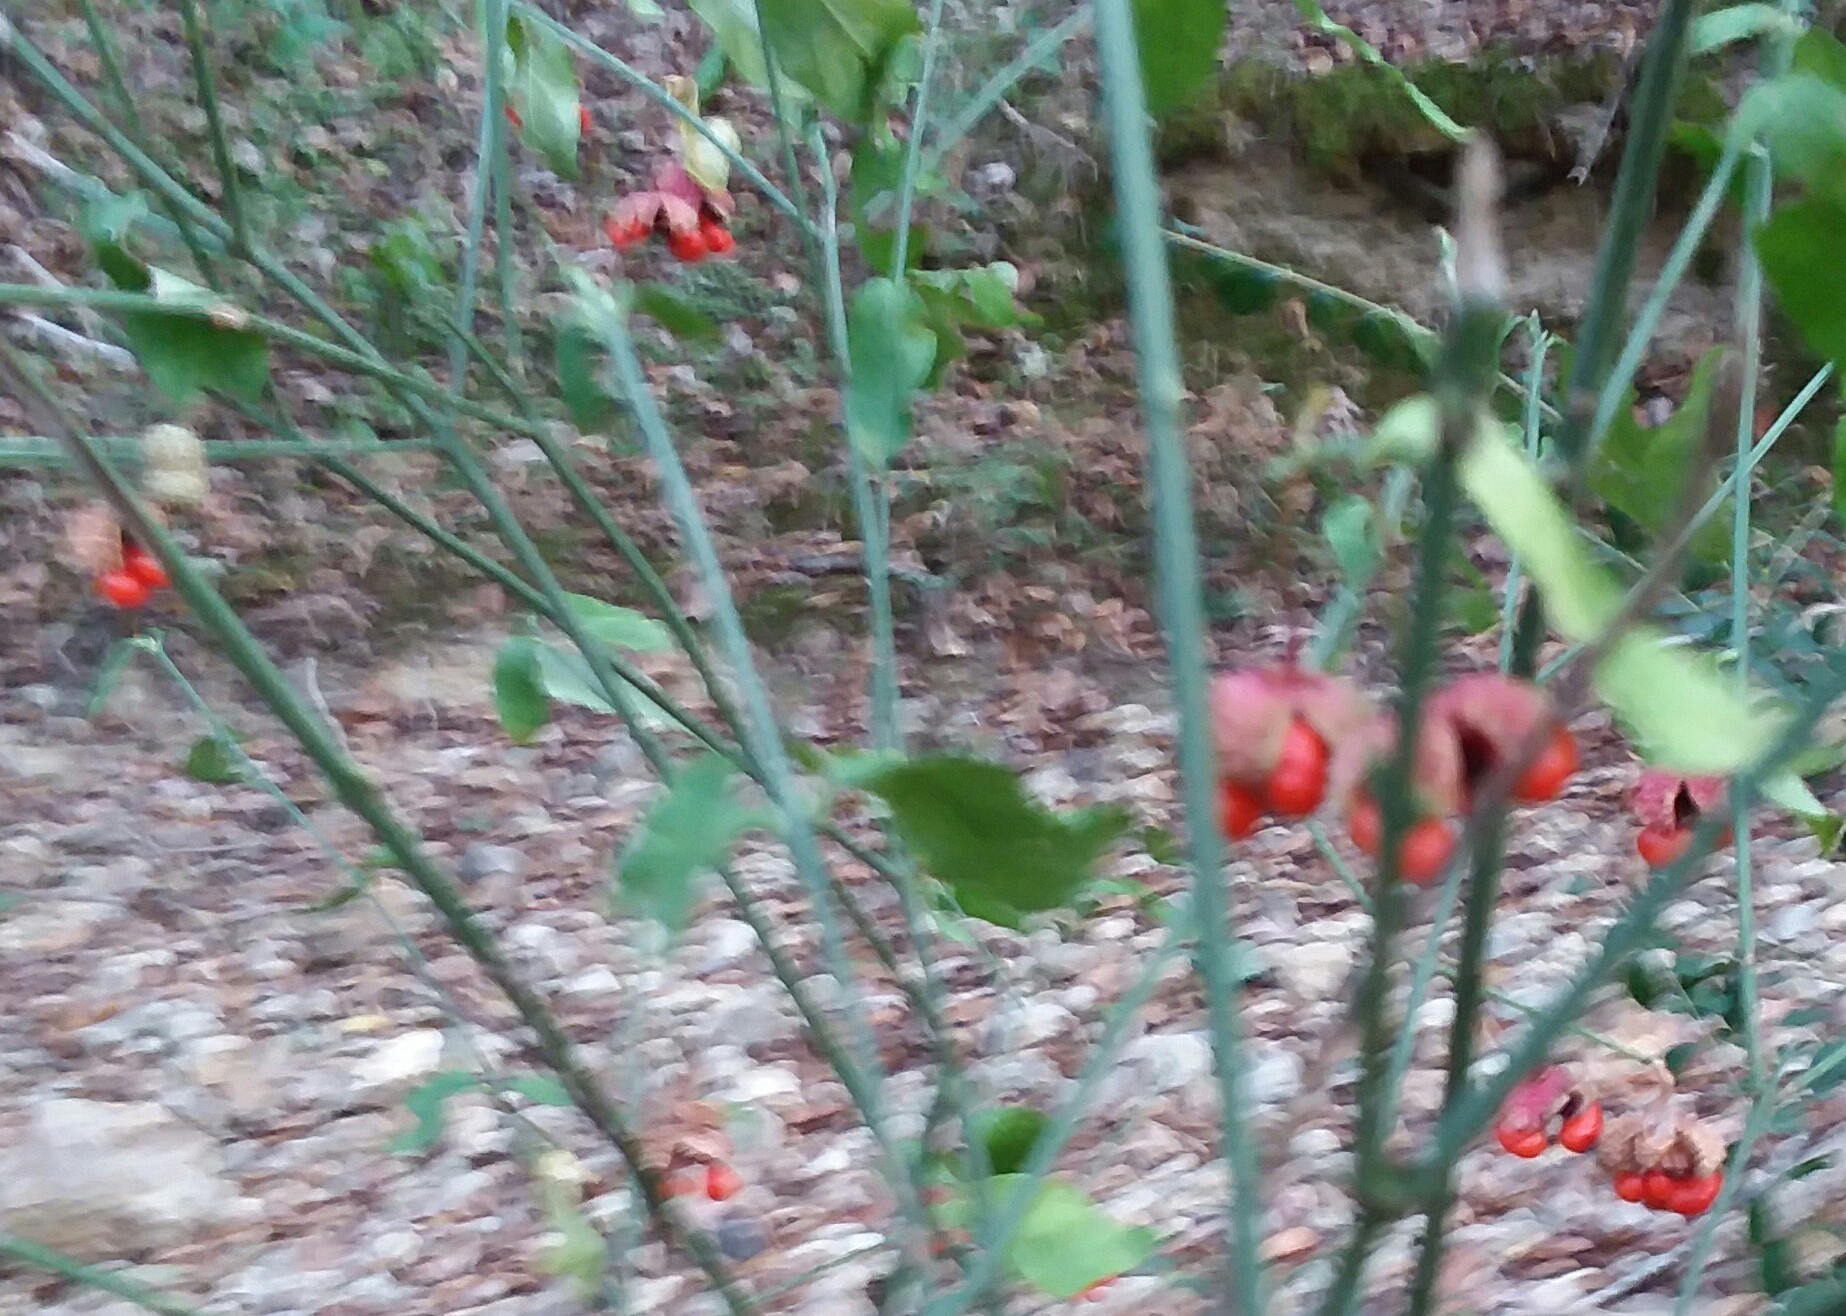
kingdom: Plantae
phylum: Tracheophyta
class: Magnoliopsida
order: Celastrales
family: Celastraceae
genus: Euonymus
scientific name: Euonymus americanus
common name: Bursting-heart
